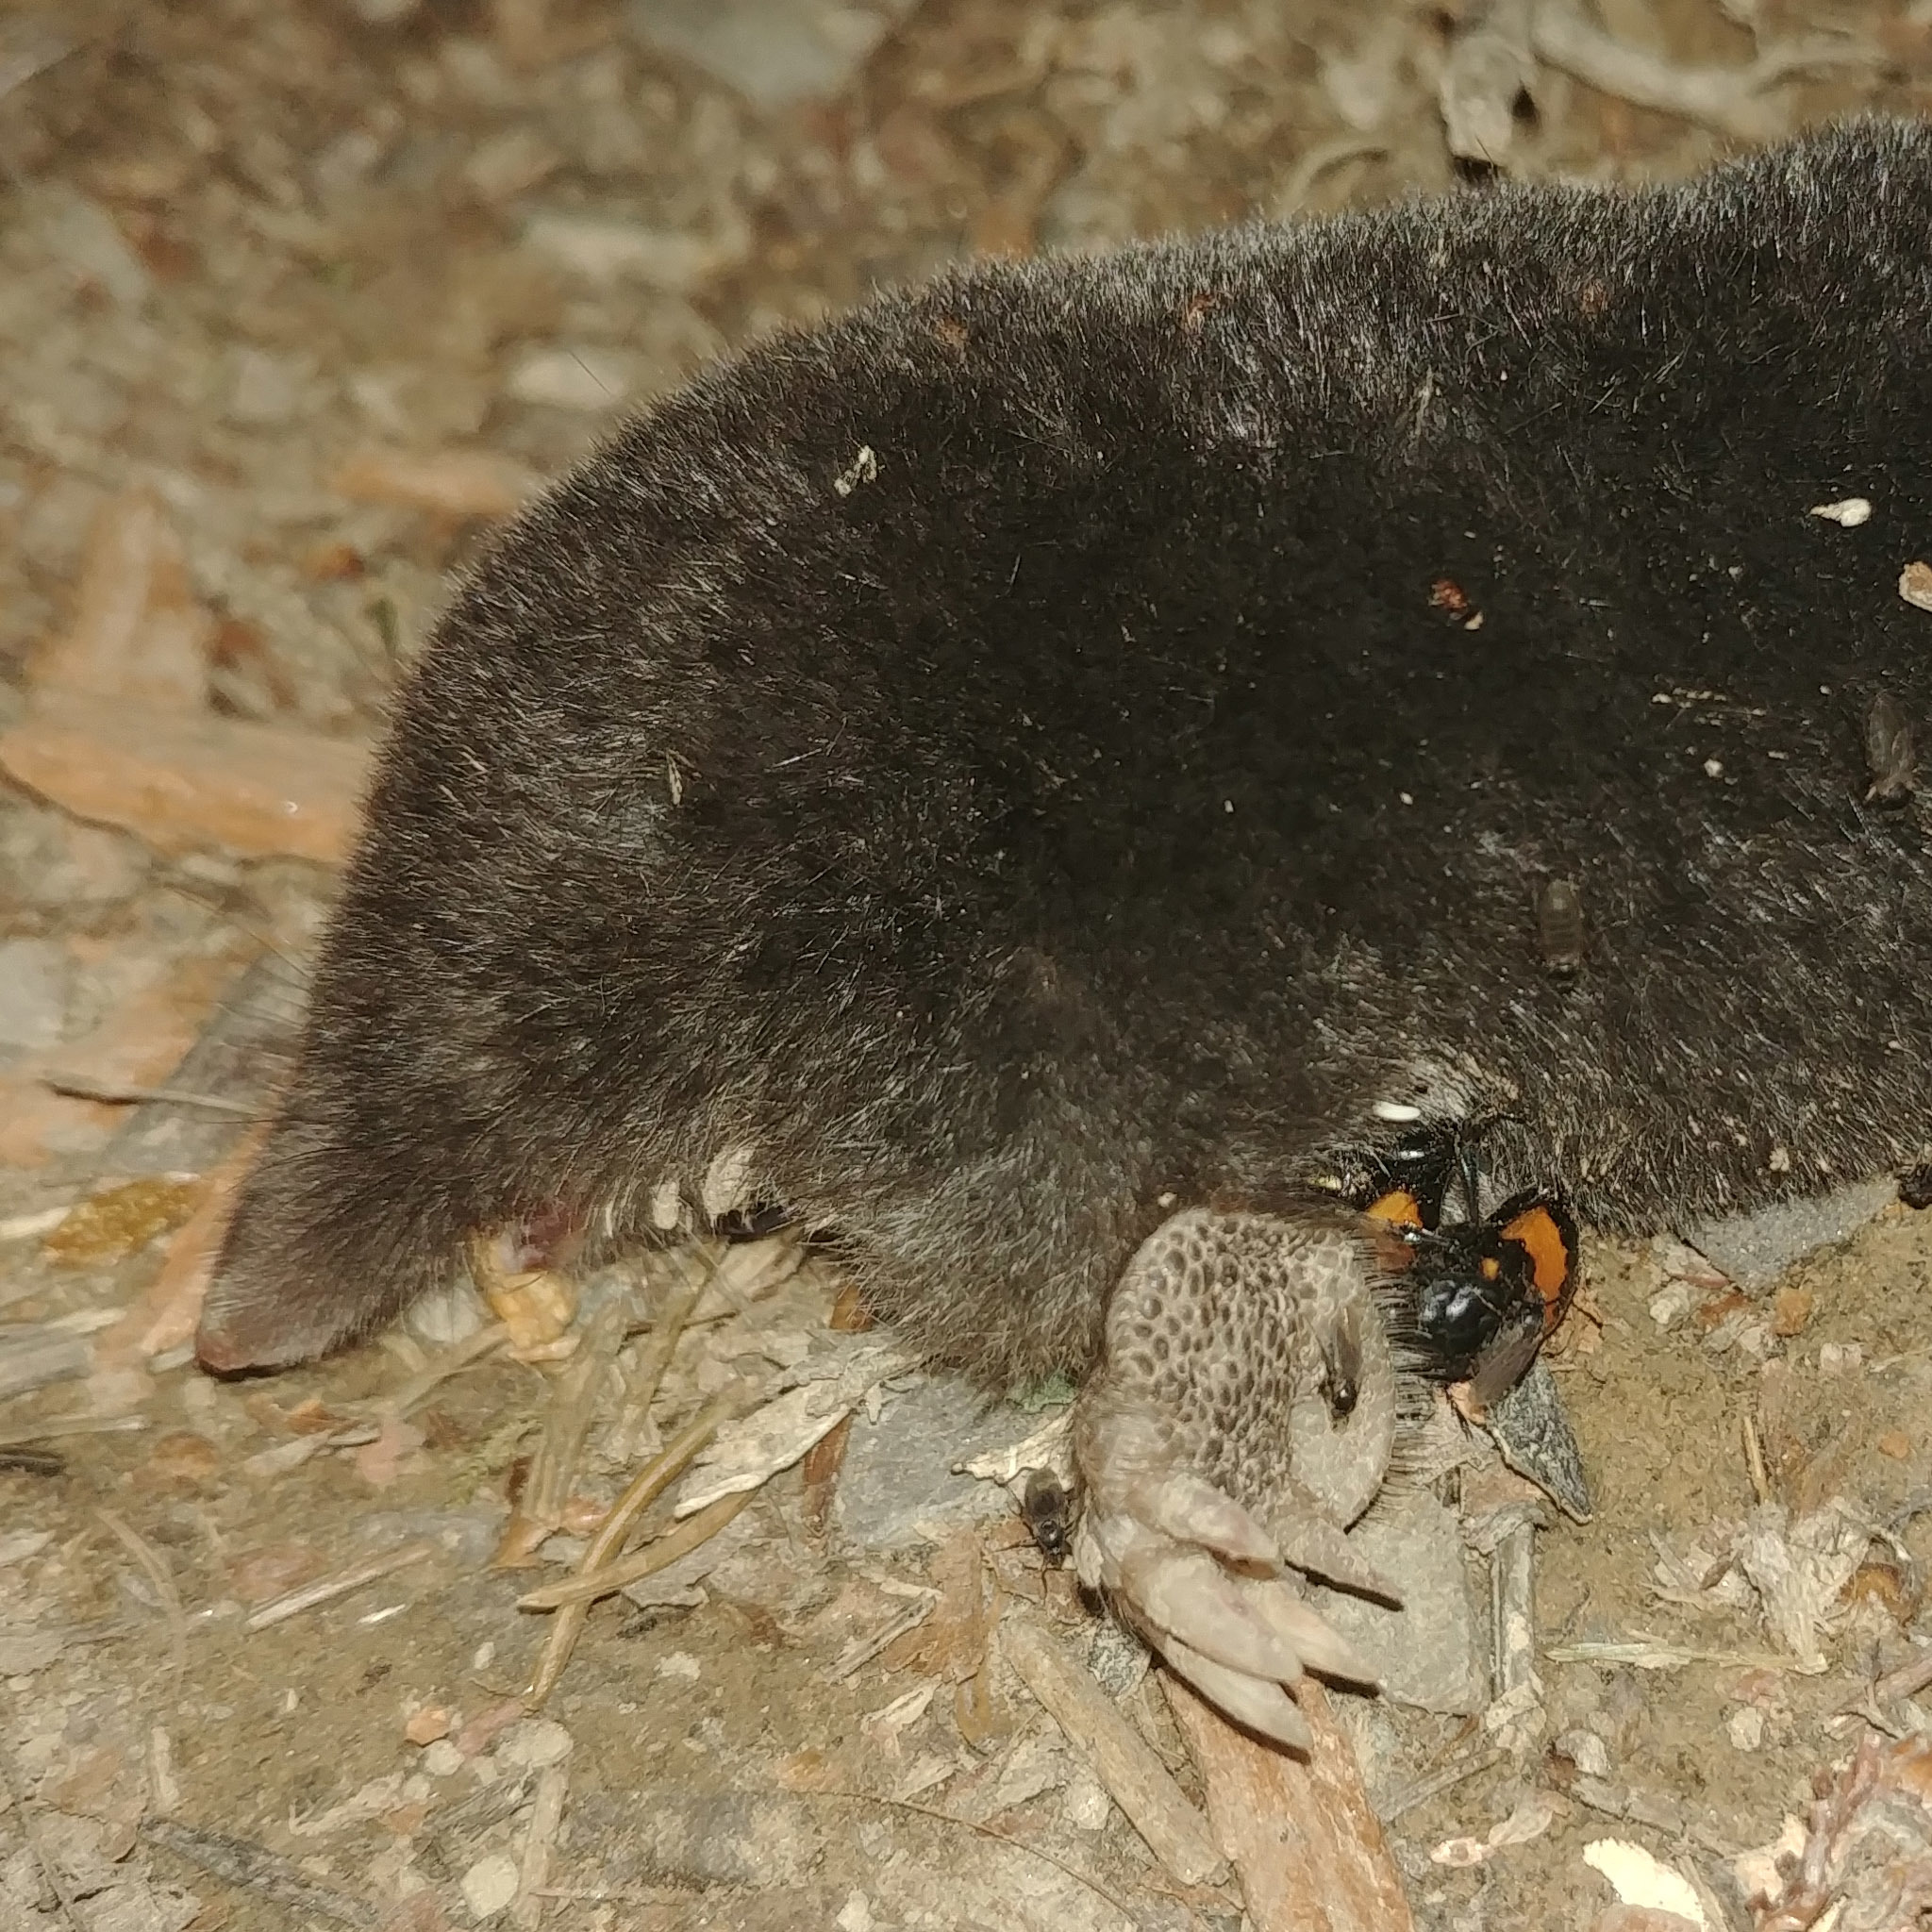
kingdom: Animalia
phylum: Chordata
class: Mammalia
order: Soricomorpha
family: Talpidae
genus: Talpa
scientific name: Talpa europaea
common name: European mole
